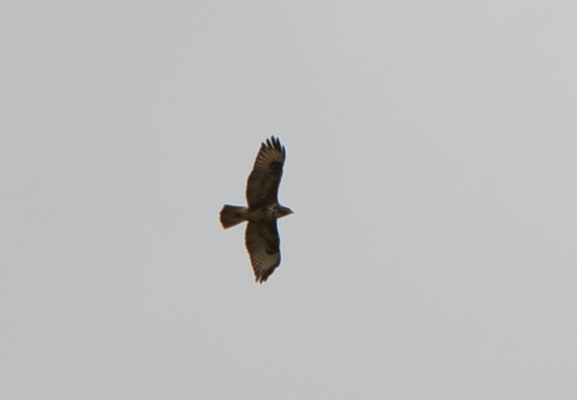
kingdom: Animalia
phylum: Chordata
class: Aves
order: Accipitriformes
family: Accipitridae
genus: Buteo
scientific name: Buteo buteo
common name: Common buzzard
